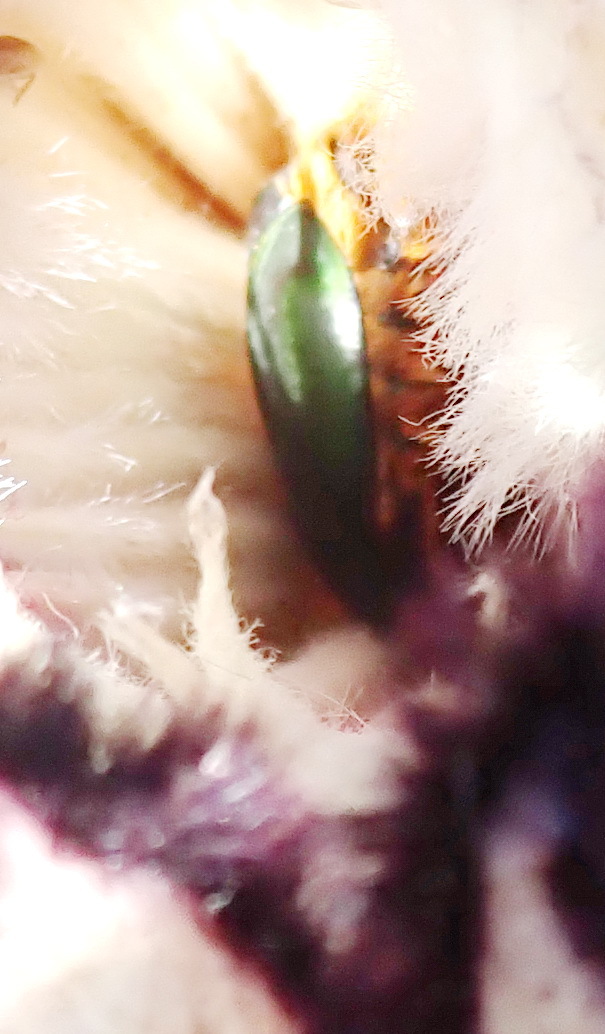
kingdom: Animalia
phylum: Arthropoda
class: Insecta
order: Coleoptera
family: Scarabaeidae
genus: Trichostetha
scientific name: Trichostetha fascicularis
